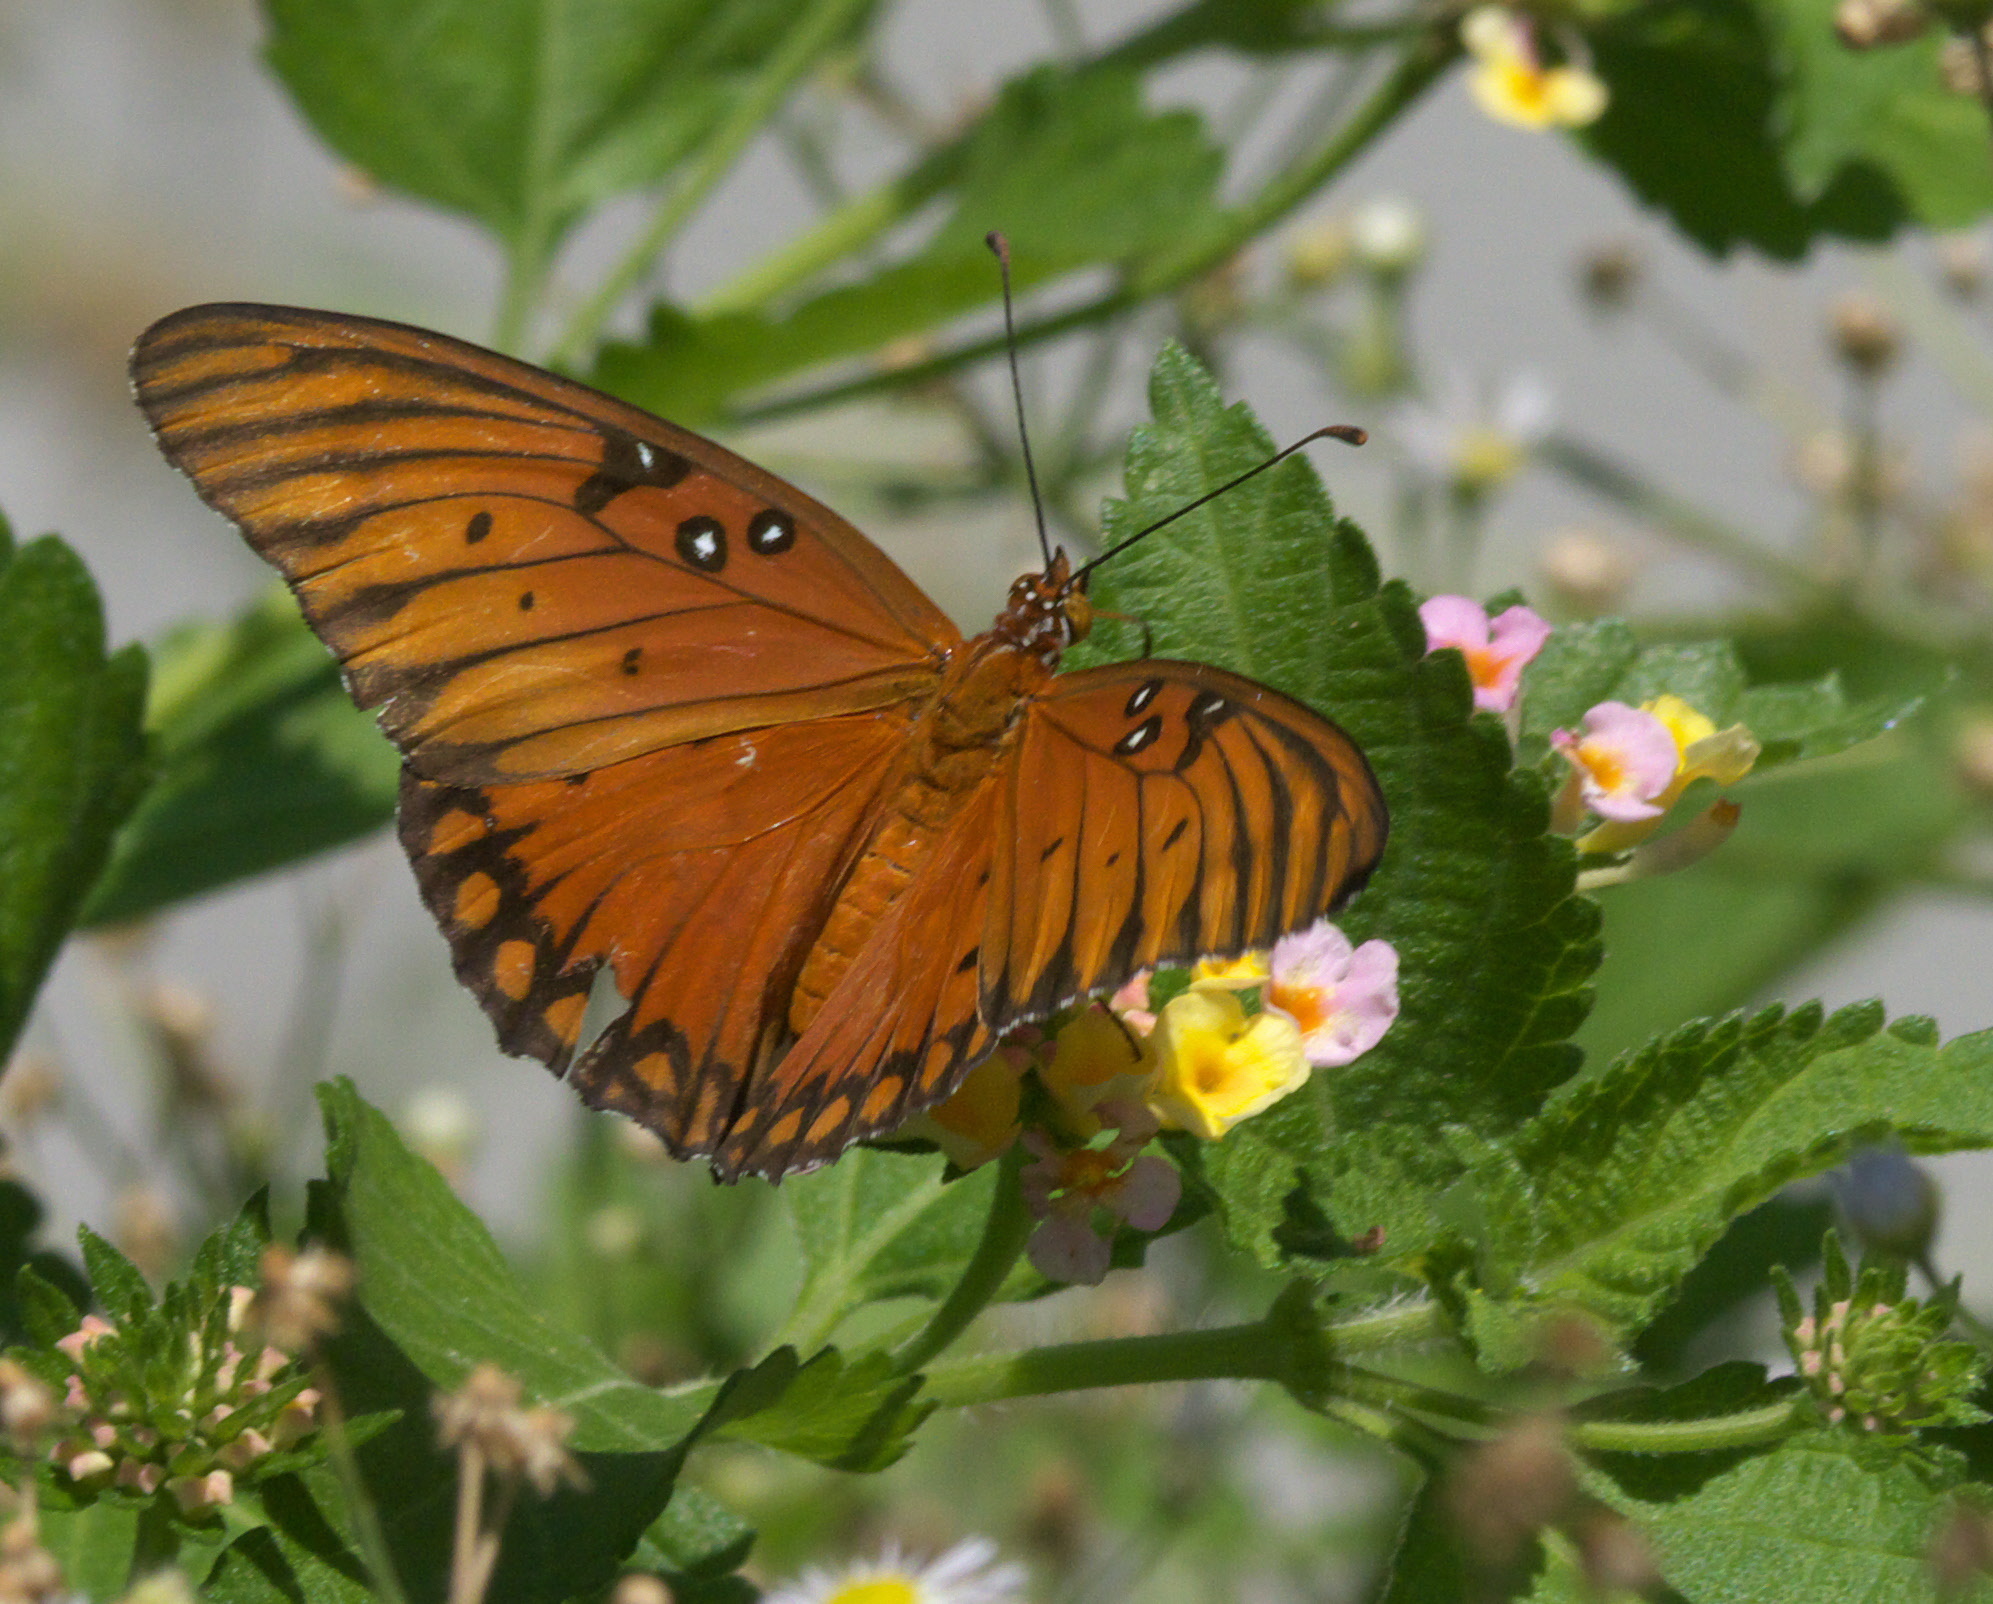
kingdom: Animalia
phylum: Arthropoda
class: Insecta
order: Lepidoptera
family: Nymphalidae
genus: Dione
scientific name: Dione vanillae
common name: Gulf fritillary
